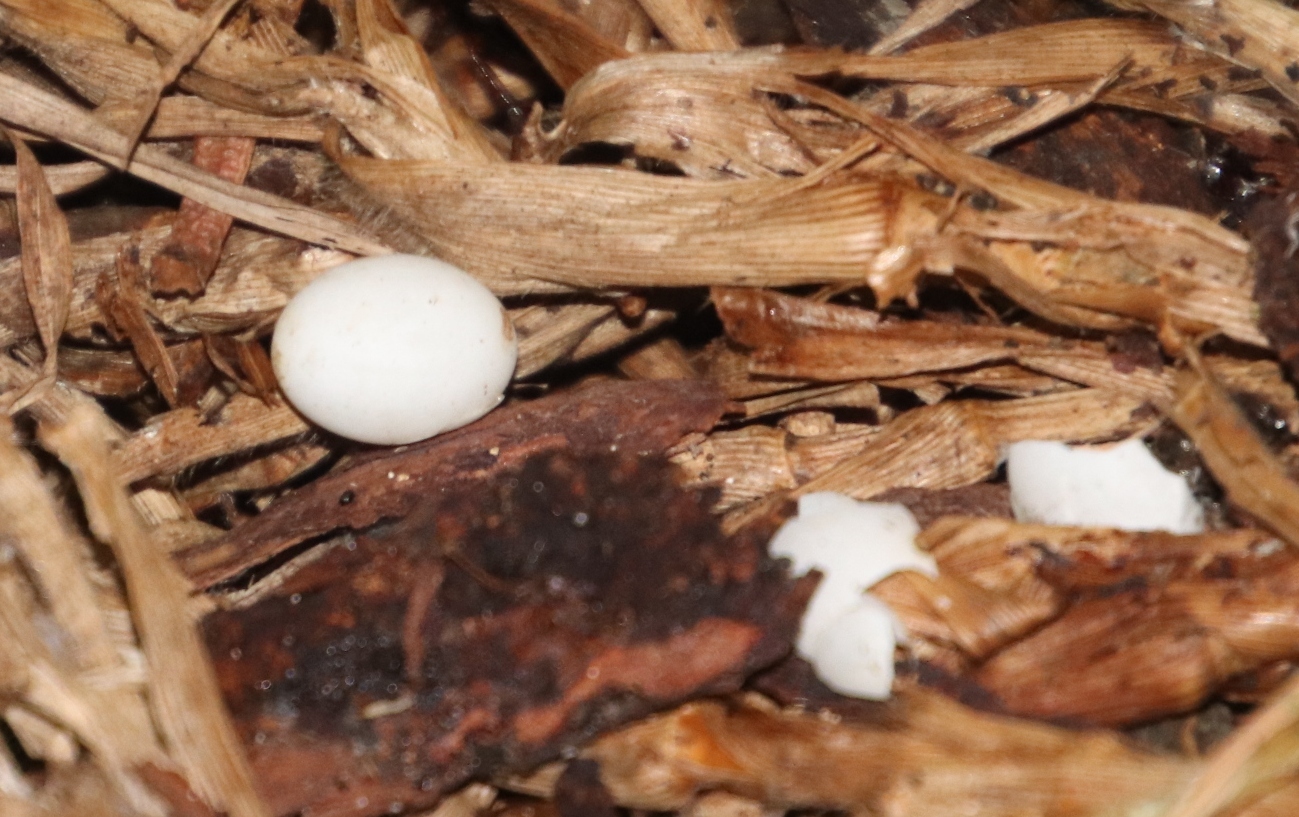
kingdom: Animalia
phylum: Chordata
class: Squamata
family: Gekkonidae
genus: Afrogecko
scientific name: Afrogecko porphyreus
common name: Marbled leaf-toed gecko
